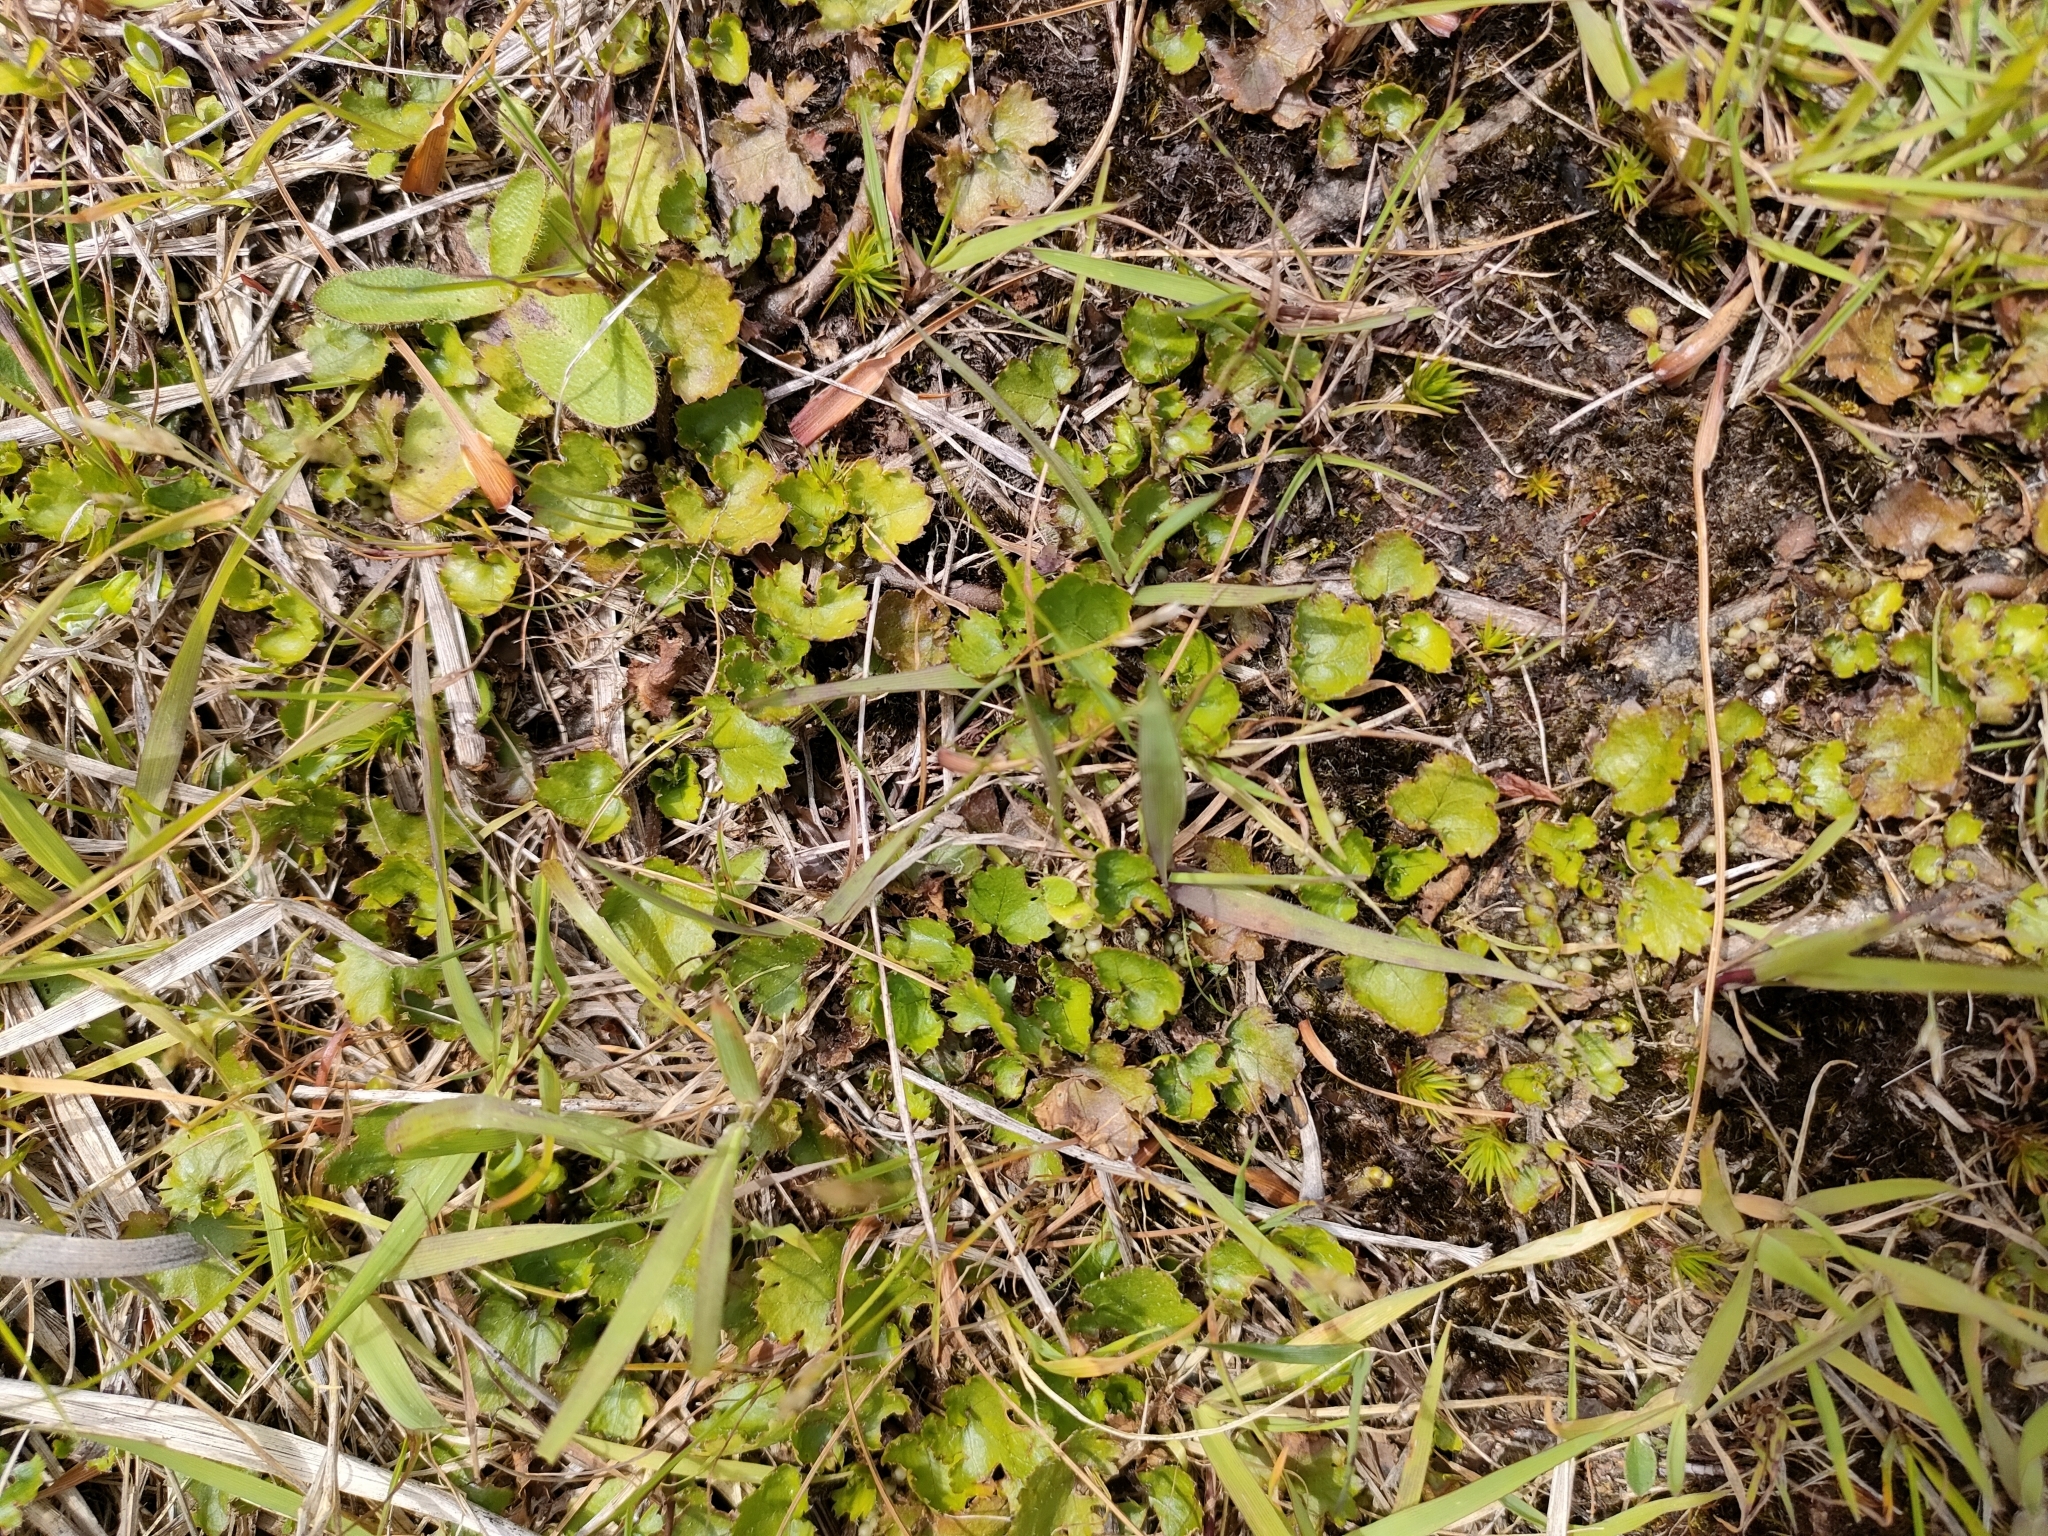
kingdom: Plantae
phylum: Tracheophyta
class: Magnoliopsida
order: Gunnerales
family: Gunneraceae
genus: Gunnera
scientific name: Gunnera monoica
